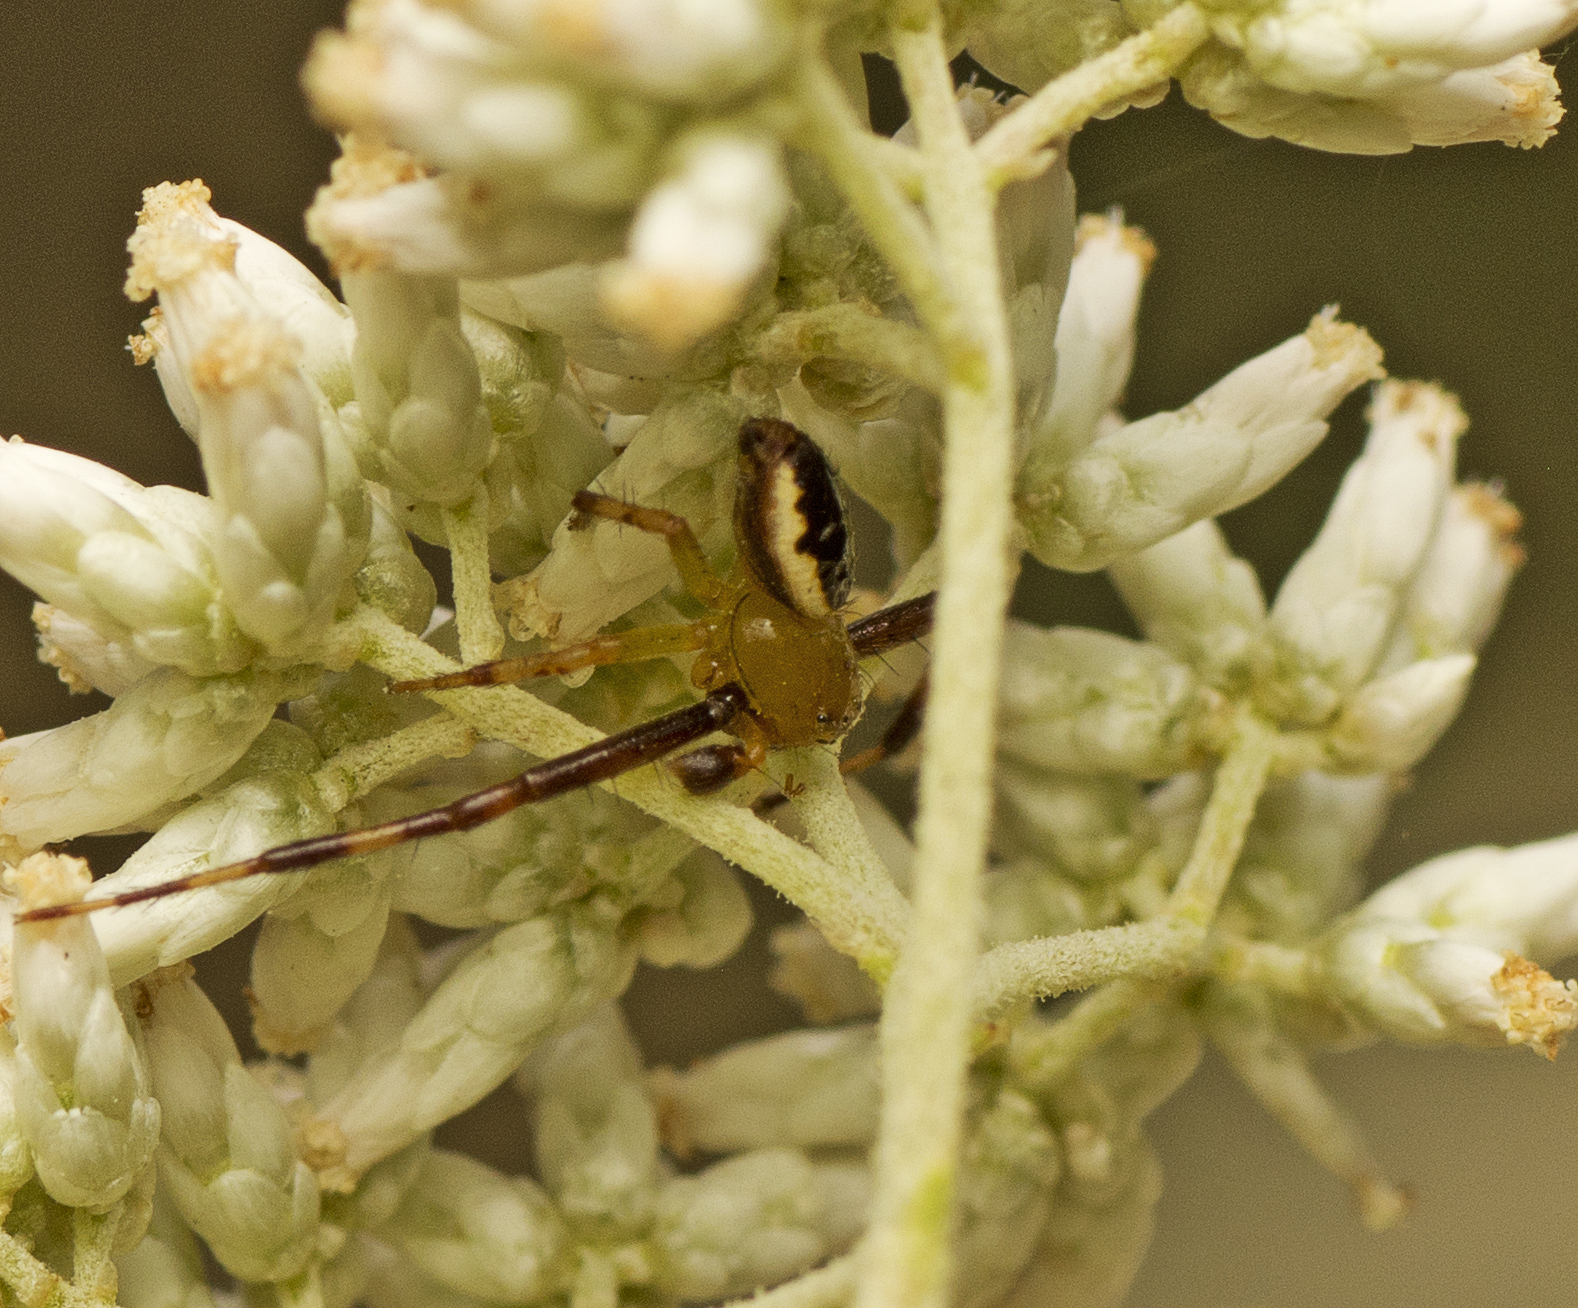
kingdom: Animalia
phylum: Arthropoda
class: Arachnida
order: Araneae
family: Thomisidae
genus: Australomisidia
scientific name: Australomisidia pilula
